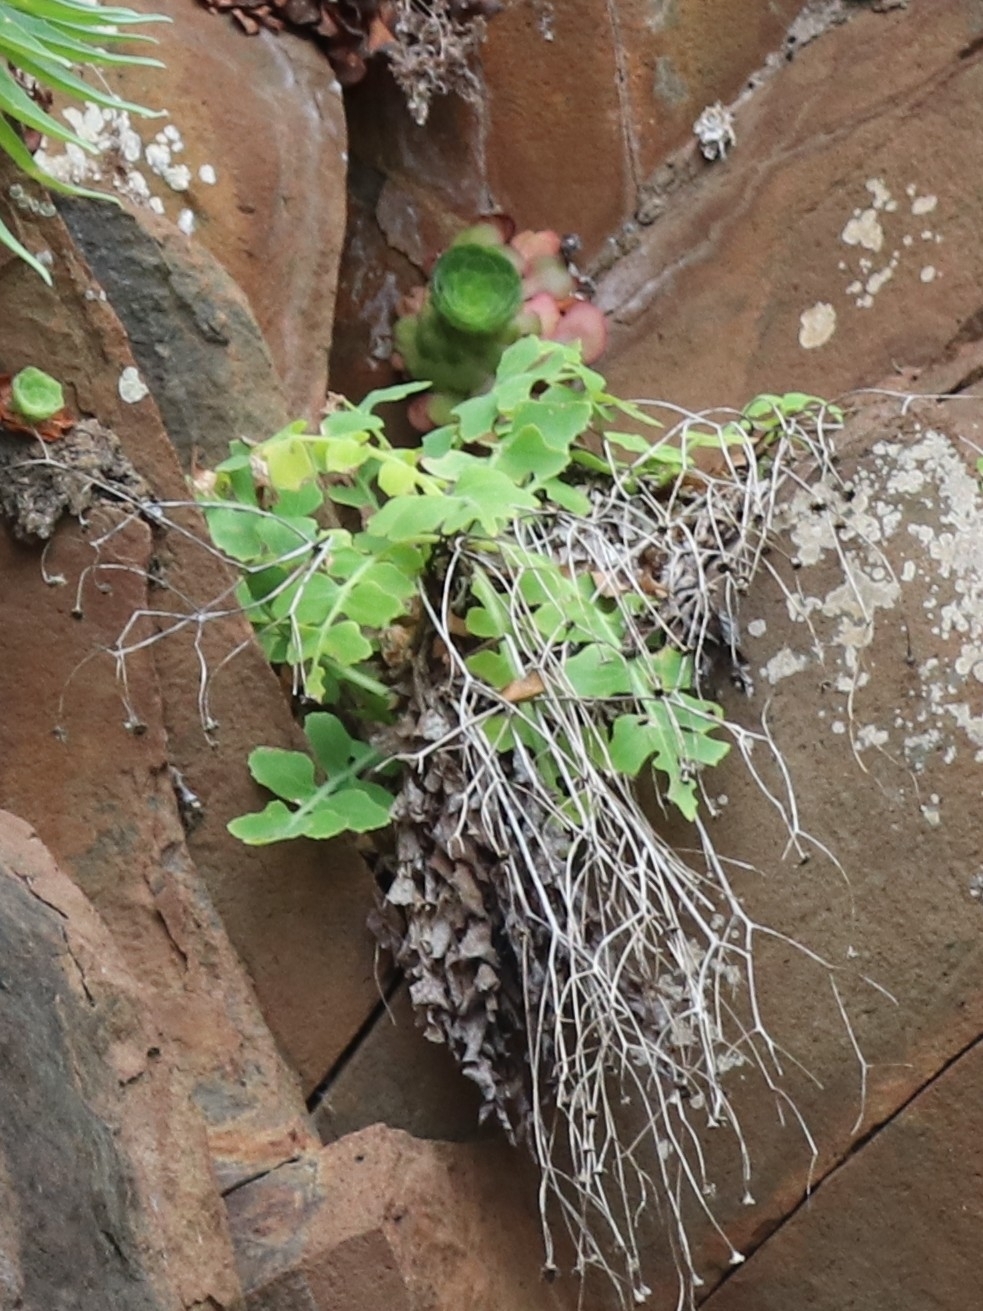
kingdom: Plantae
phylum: Tracheophyta
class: Magnoliopsida
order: Asterales
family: Asteraceae
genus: Sonchus
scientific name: Sonchus latifolius
